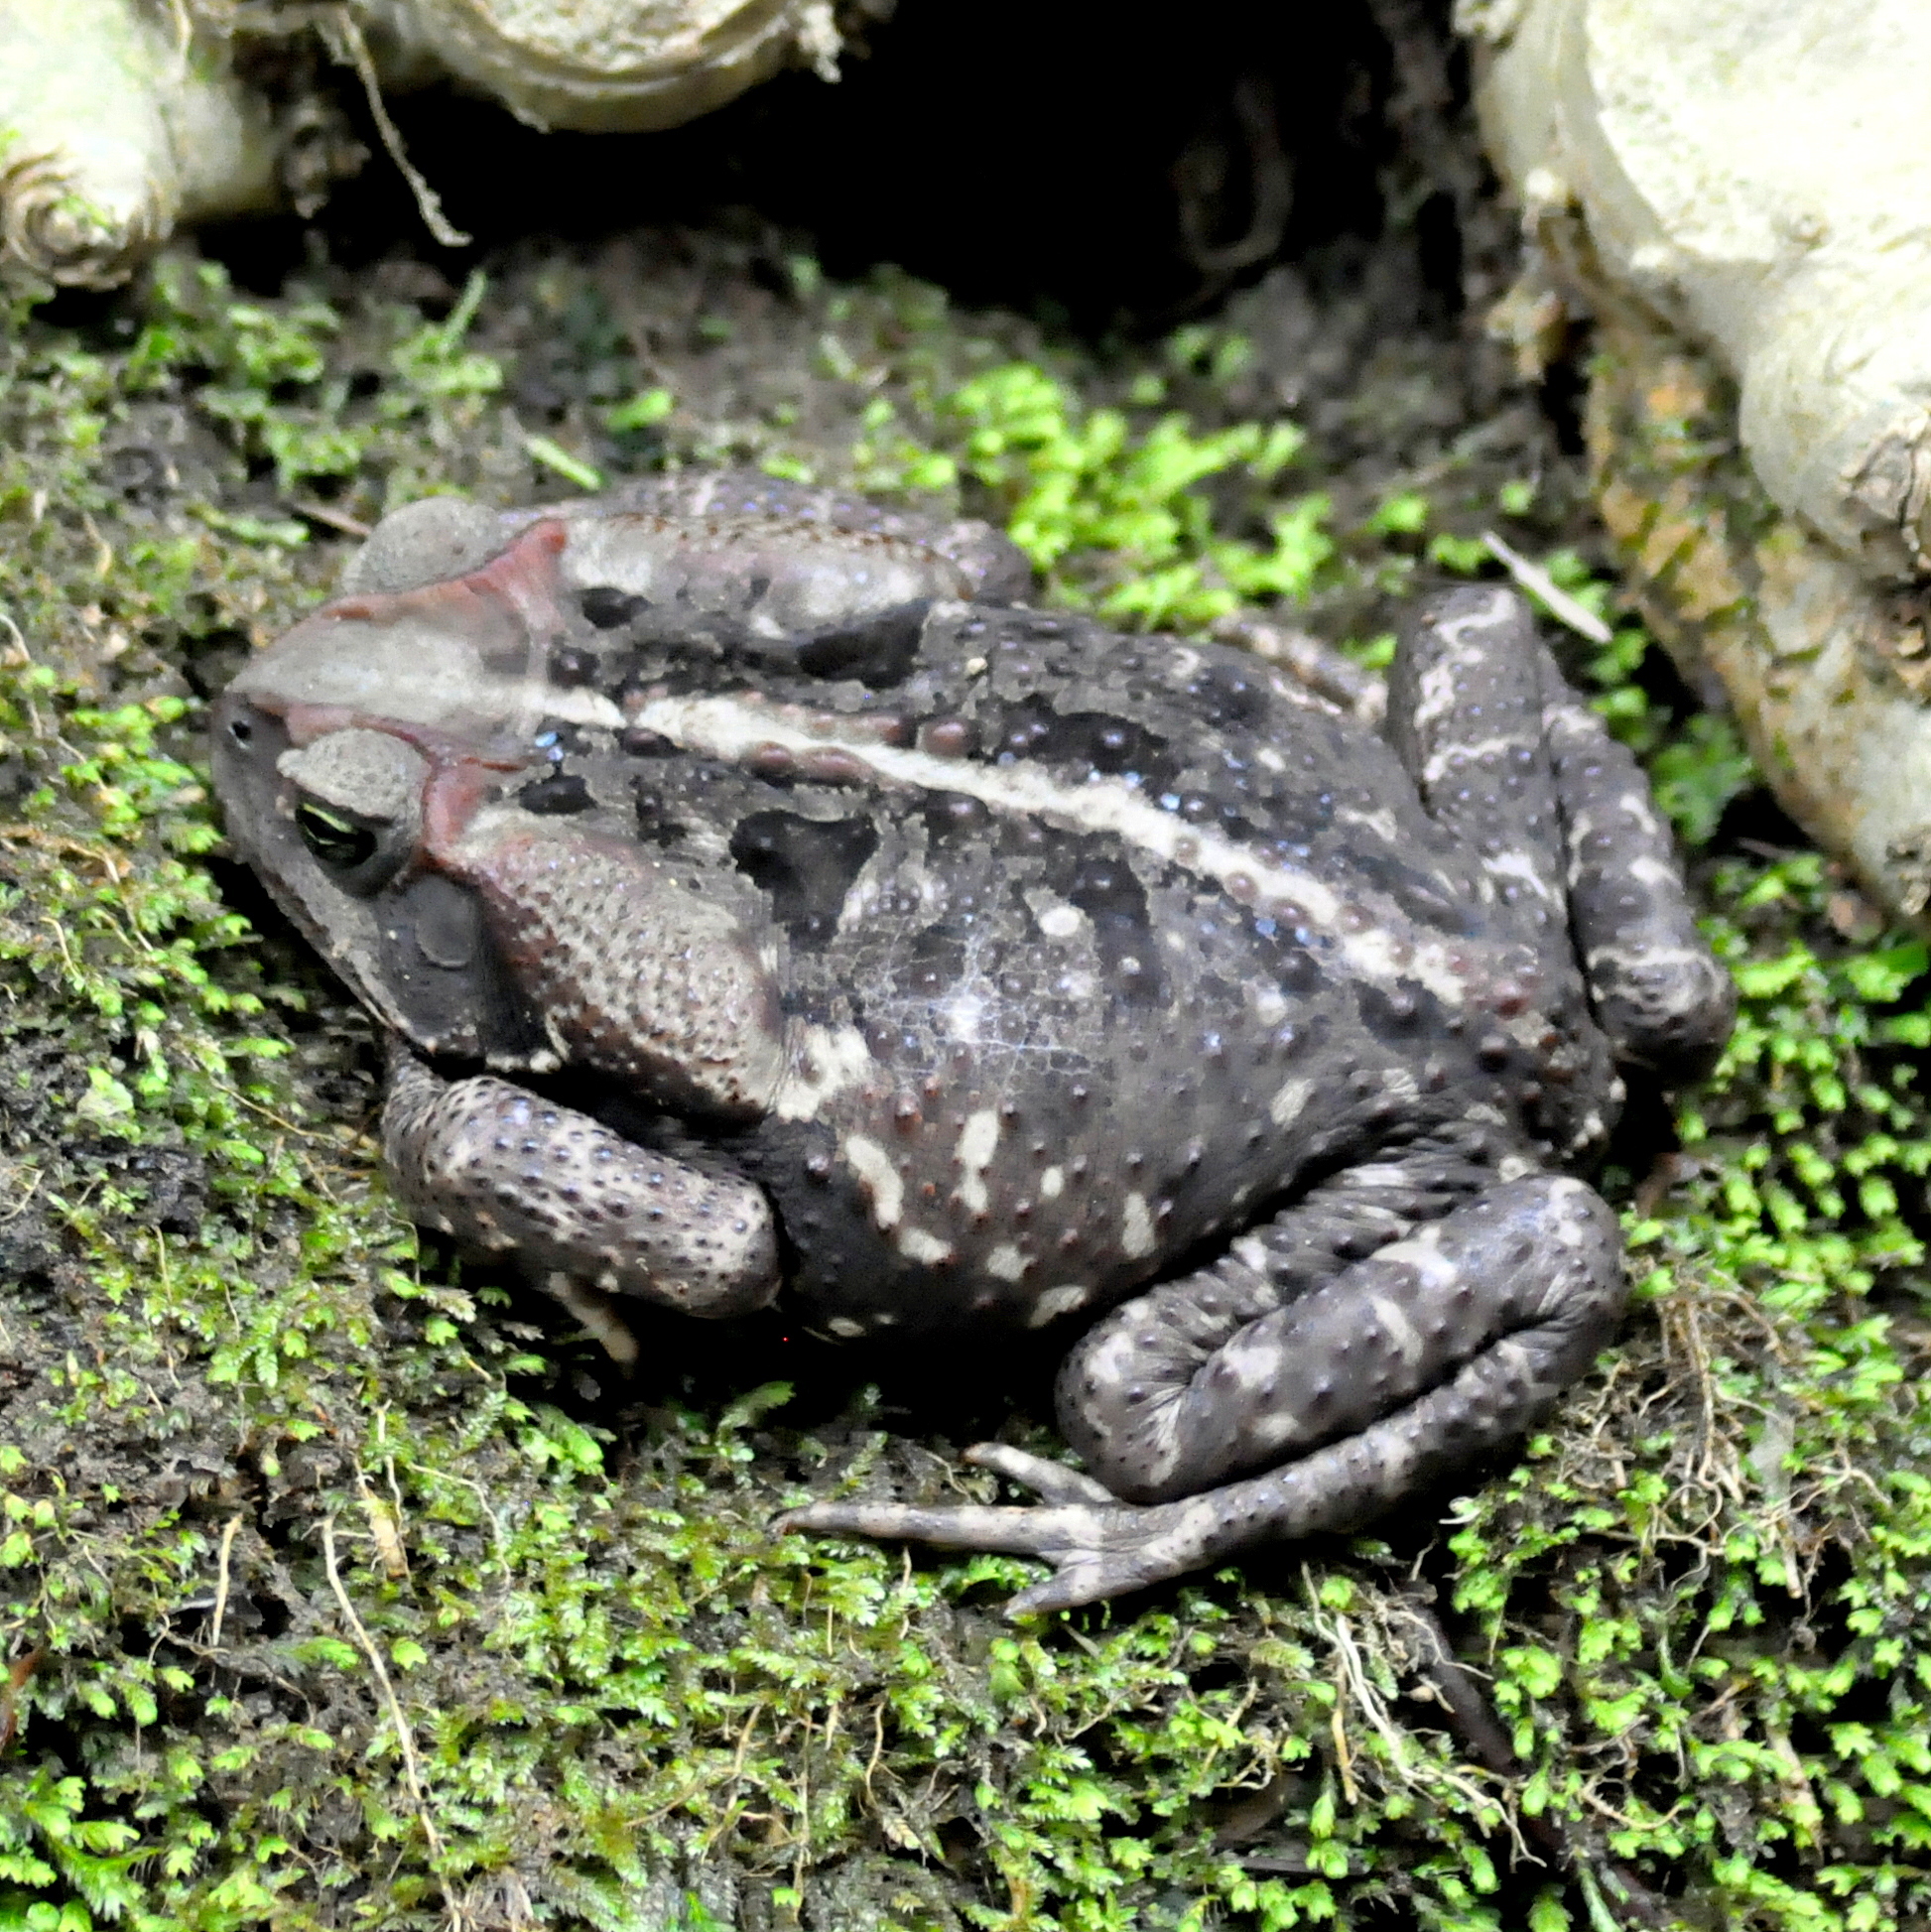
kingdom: Animalia
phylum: Chordata
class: Amphibia
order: Anura
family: Bufonidae
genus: Rhinella
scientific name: Rhinella icterica
